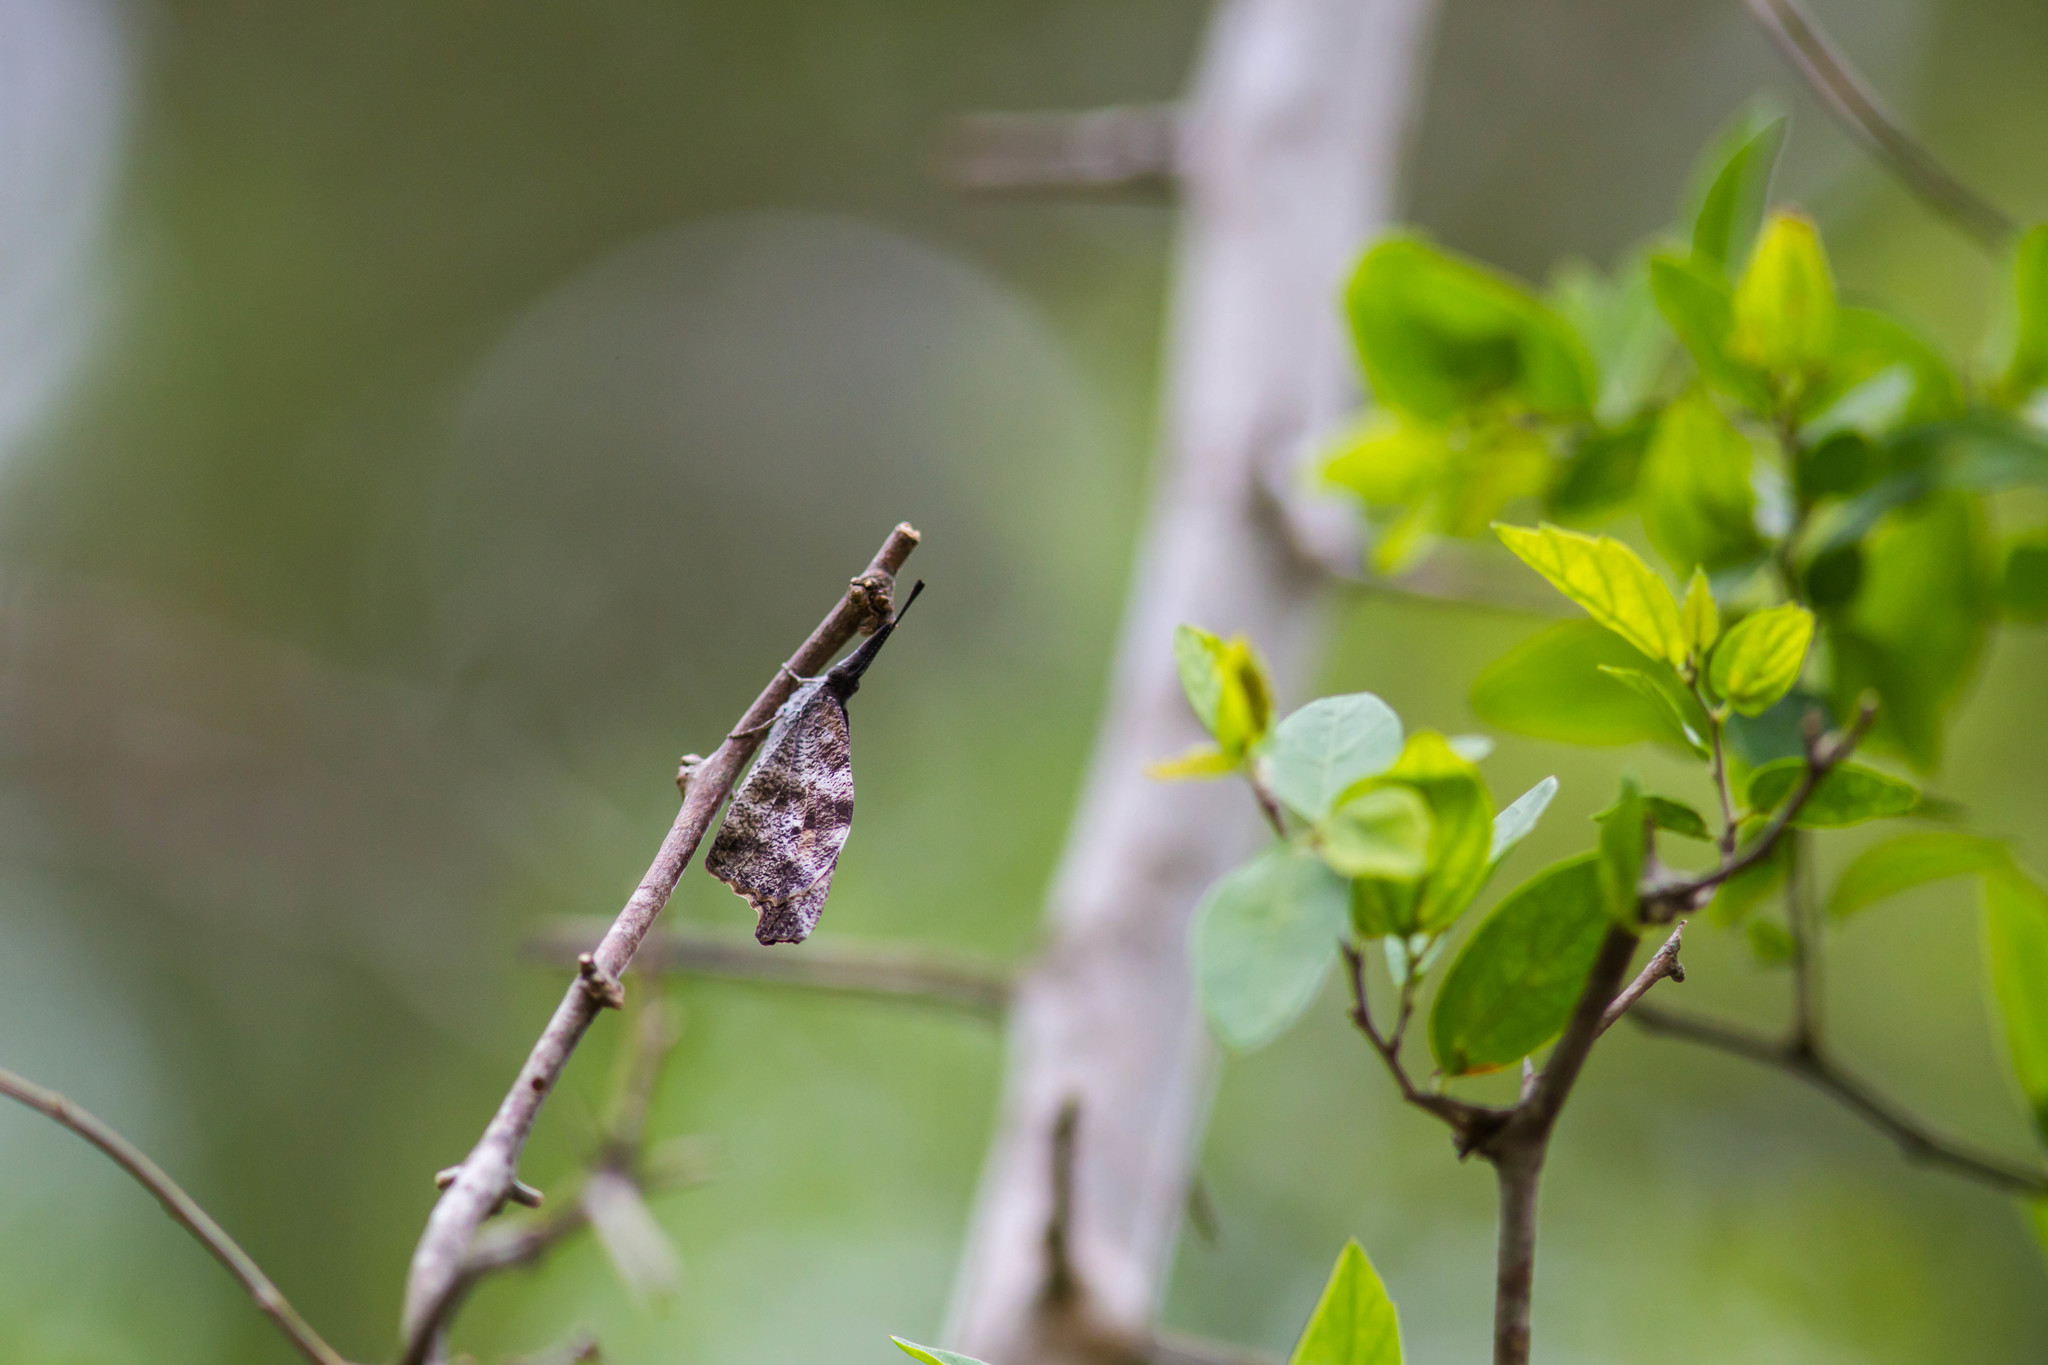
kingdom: Animalia
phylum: Arthropoda
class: Insecta
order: Lepidoptera
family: Nymphalidae
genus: Libytheana
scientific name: Libytheana carinenta
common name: American snout
